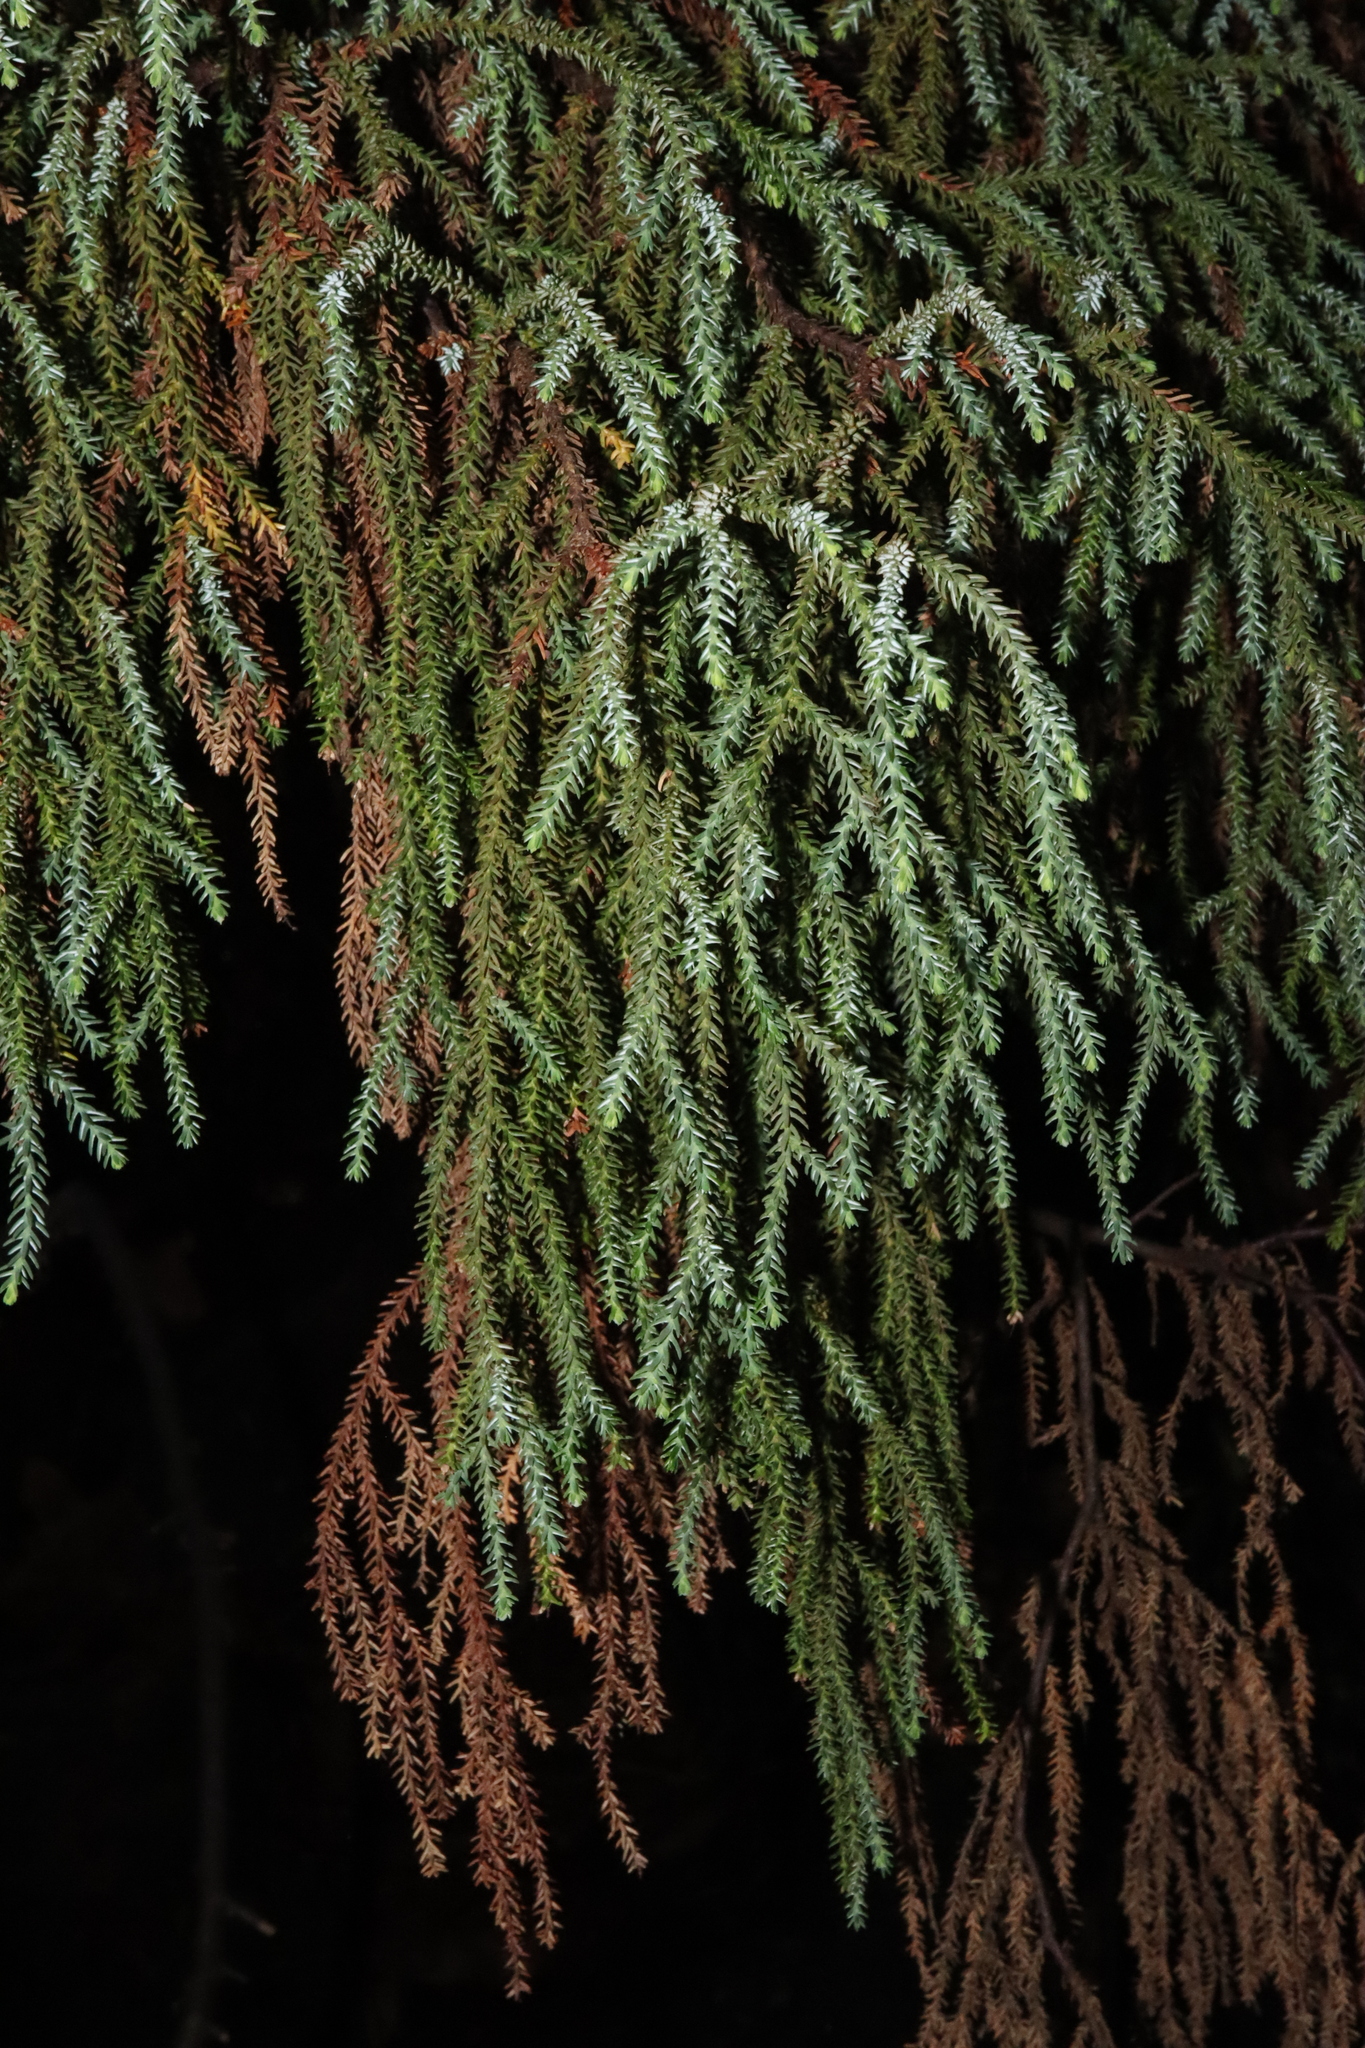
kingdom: Plantae
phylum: Tracheophyta
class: Pinopsida
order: Pinales
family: Podocarpaceae
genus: Pherosphaera
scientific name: Pherosphaera fitzgeraldii
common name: Dwarf mountain pine
